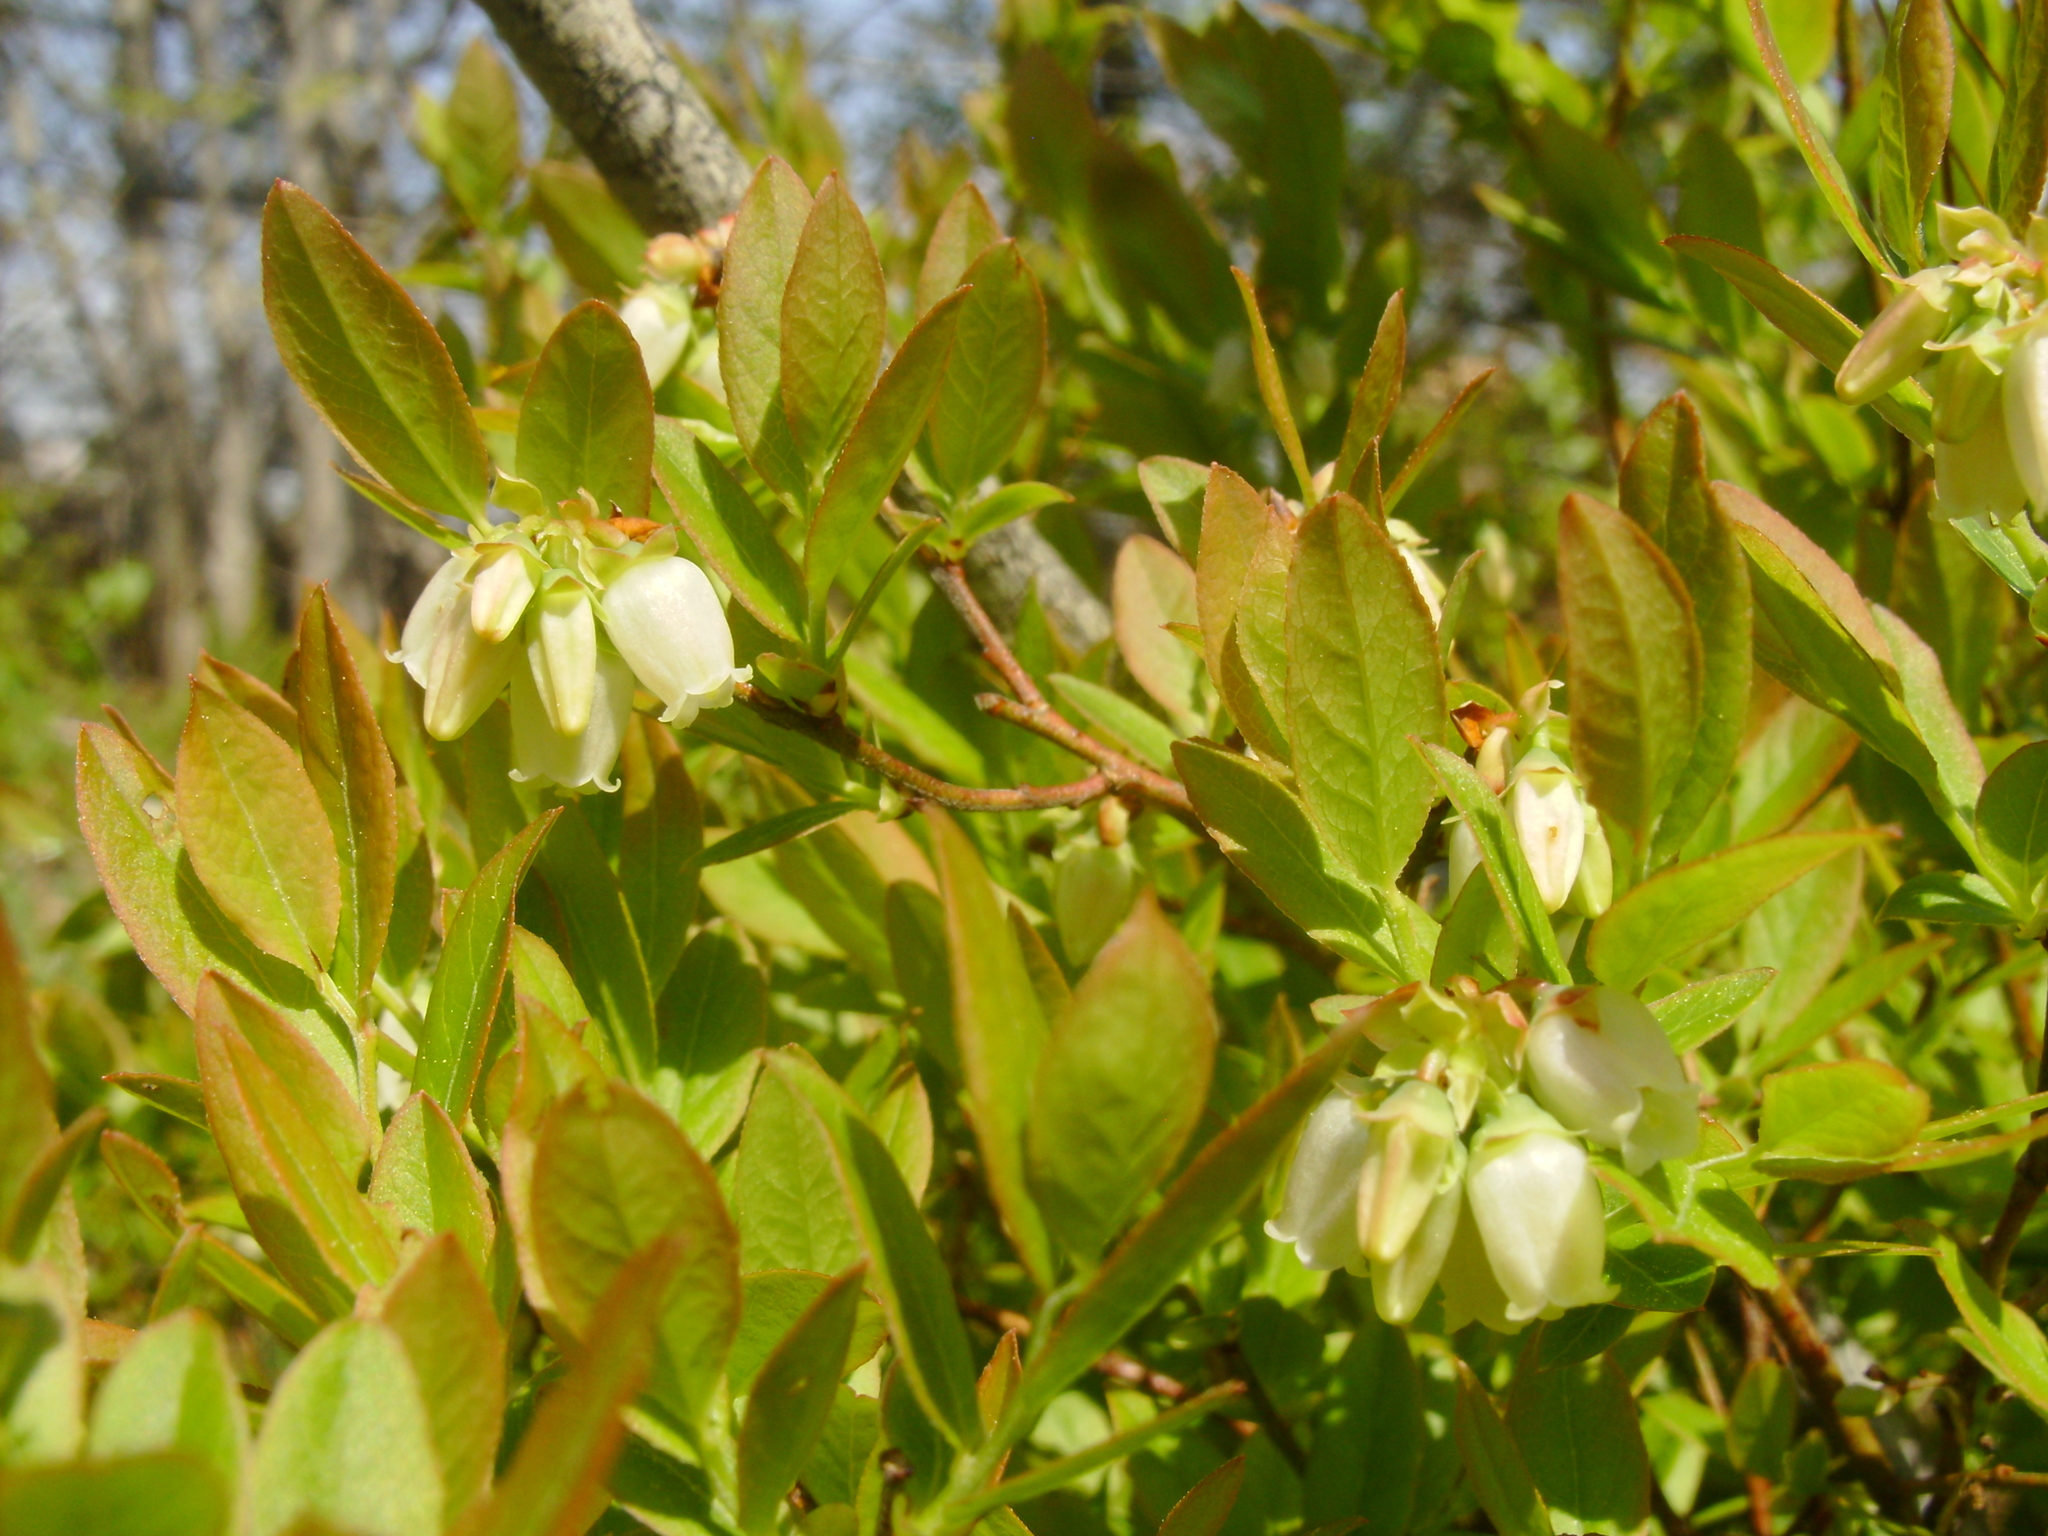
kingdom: Plantae
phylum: Tracheophyta
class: Magnoliopsida
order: Ericales
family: Ericaceae
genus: Vaccinium
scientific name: Vaccinium angustifolium
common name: Early lowbush blueberry
